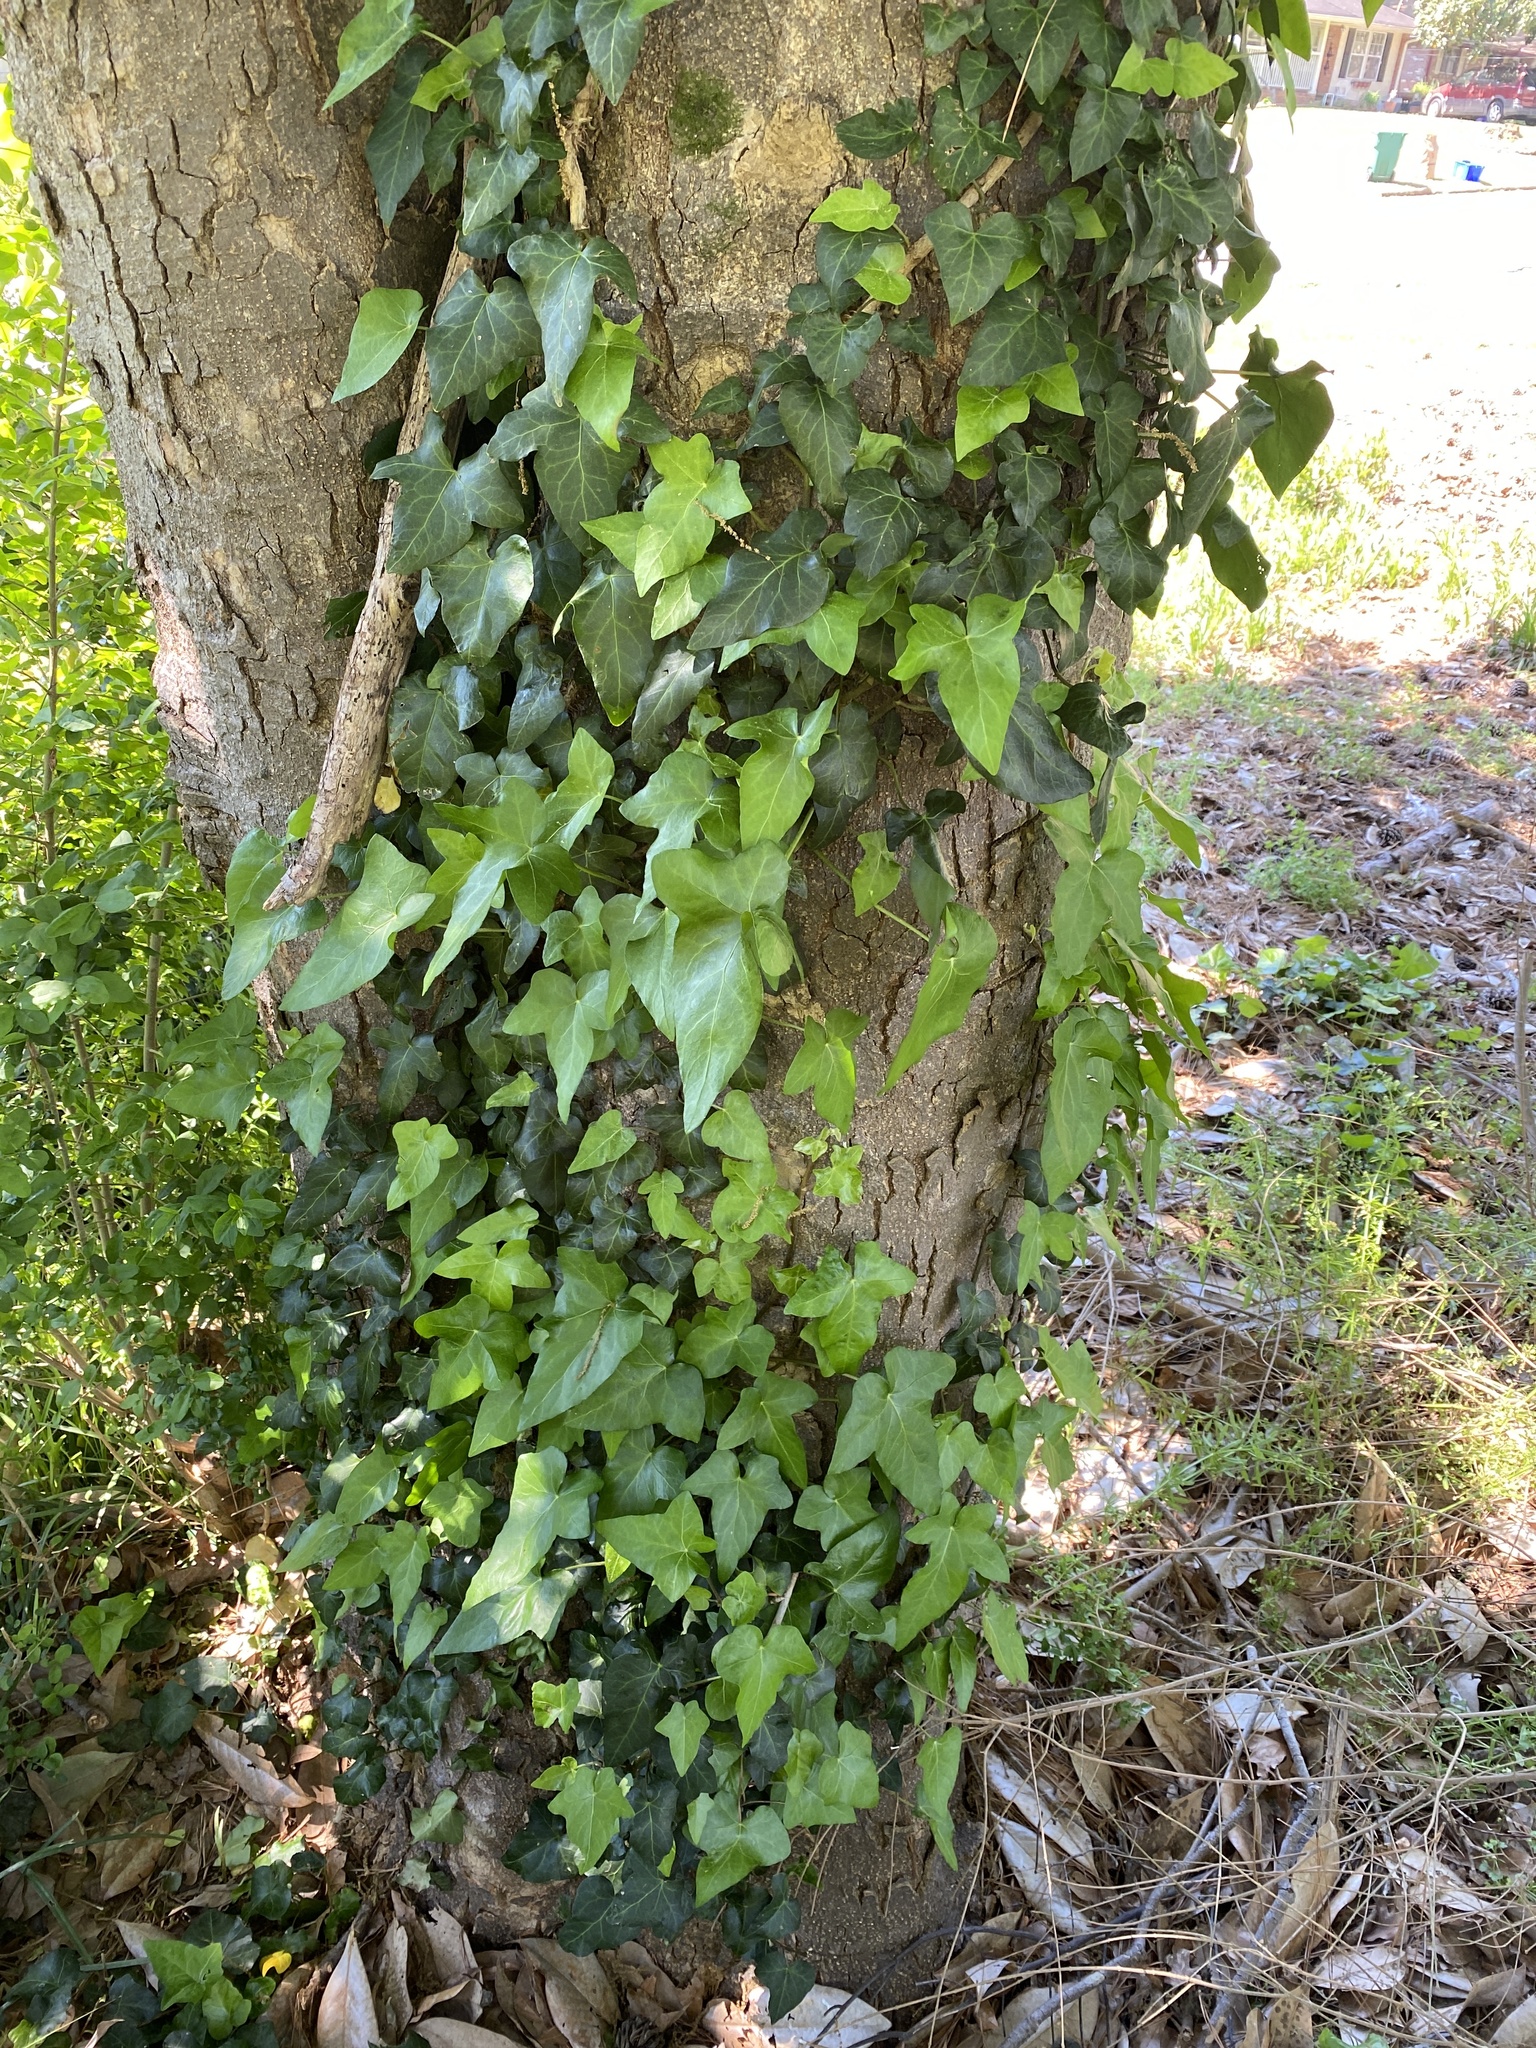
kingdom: Plantae
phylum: Tracheophyta
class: Magnoliopsida
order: Apiales
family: Araliaceae
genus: Hedera
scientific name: Hedera helix
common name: Ivy
